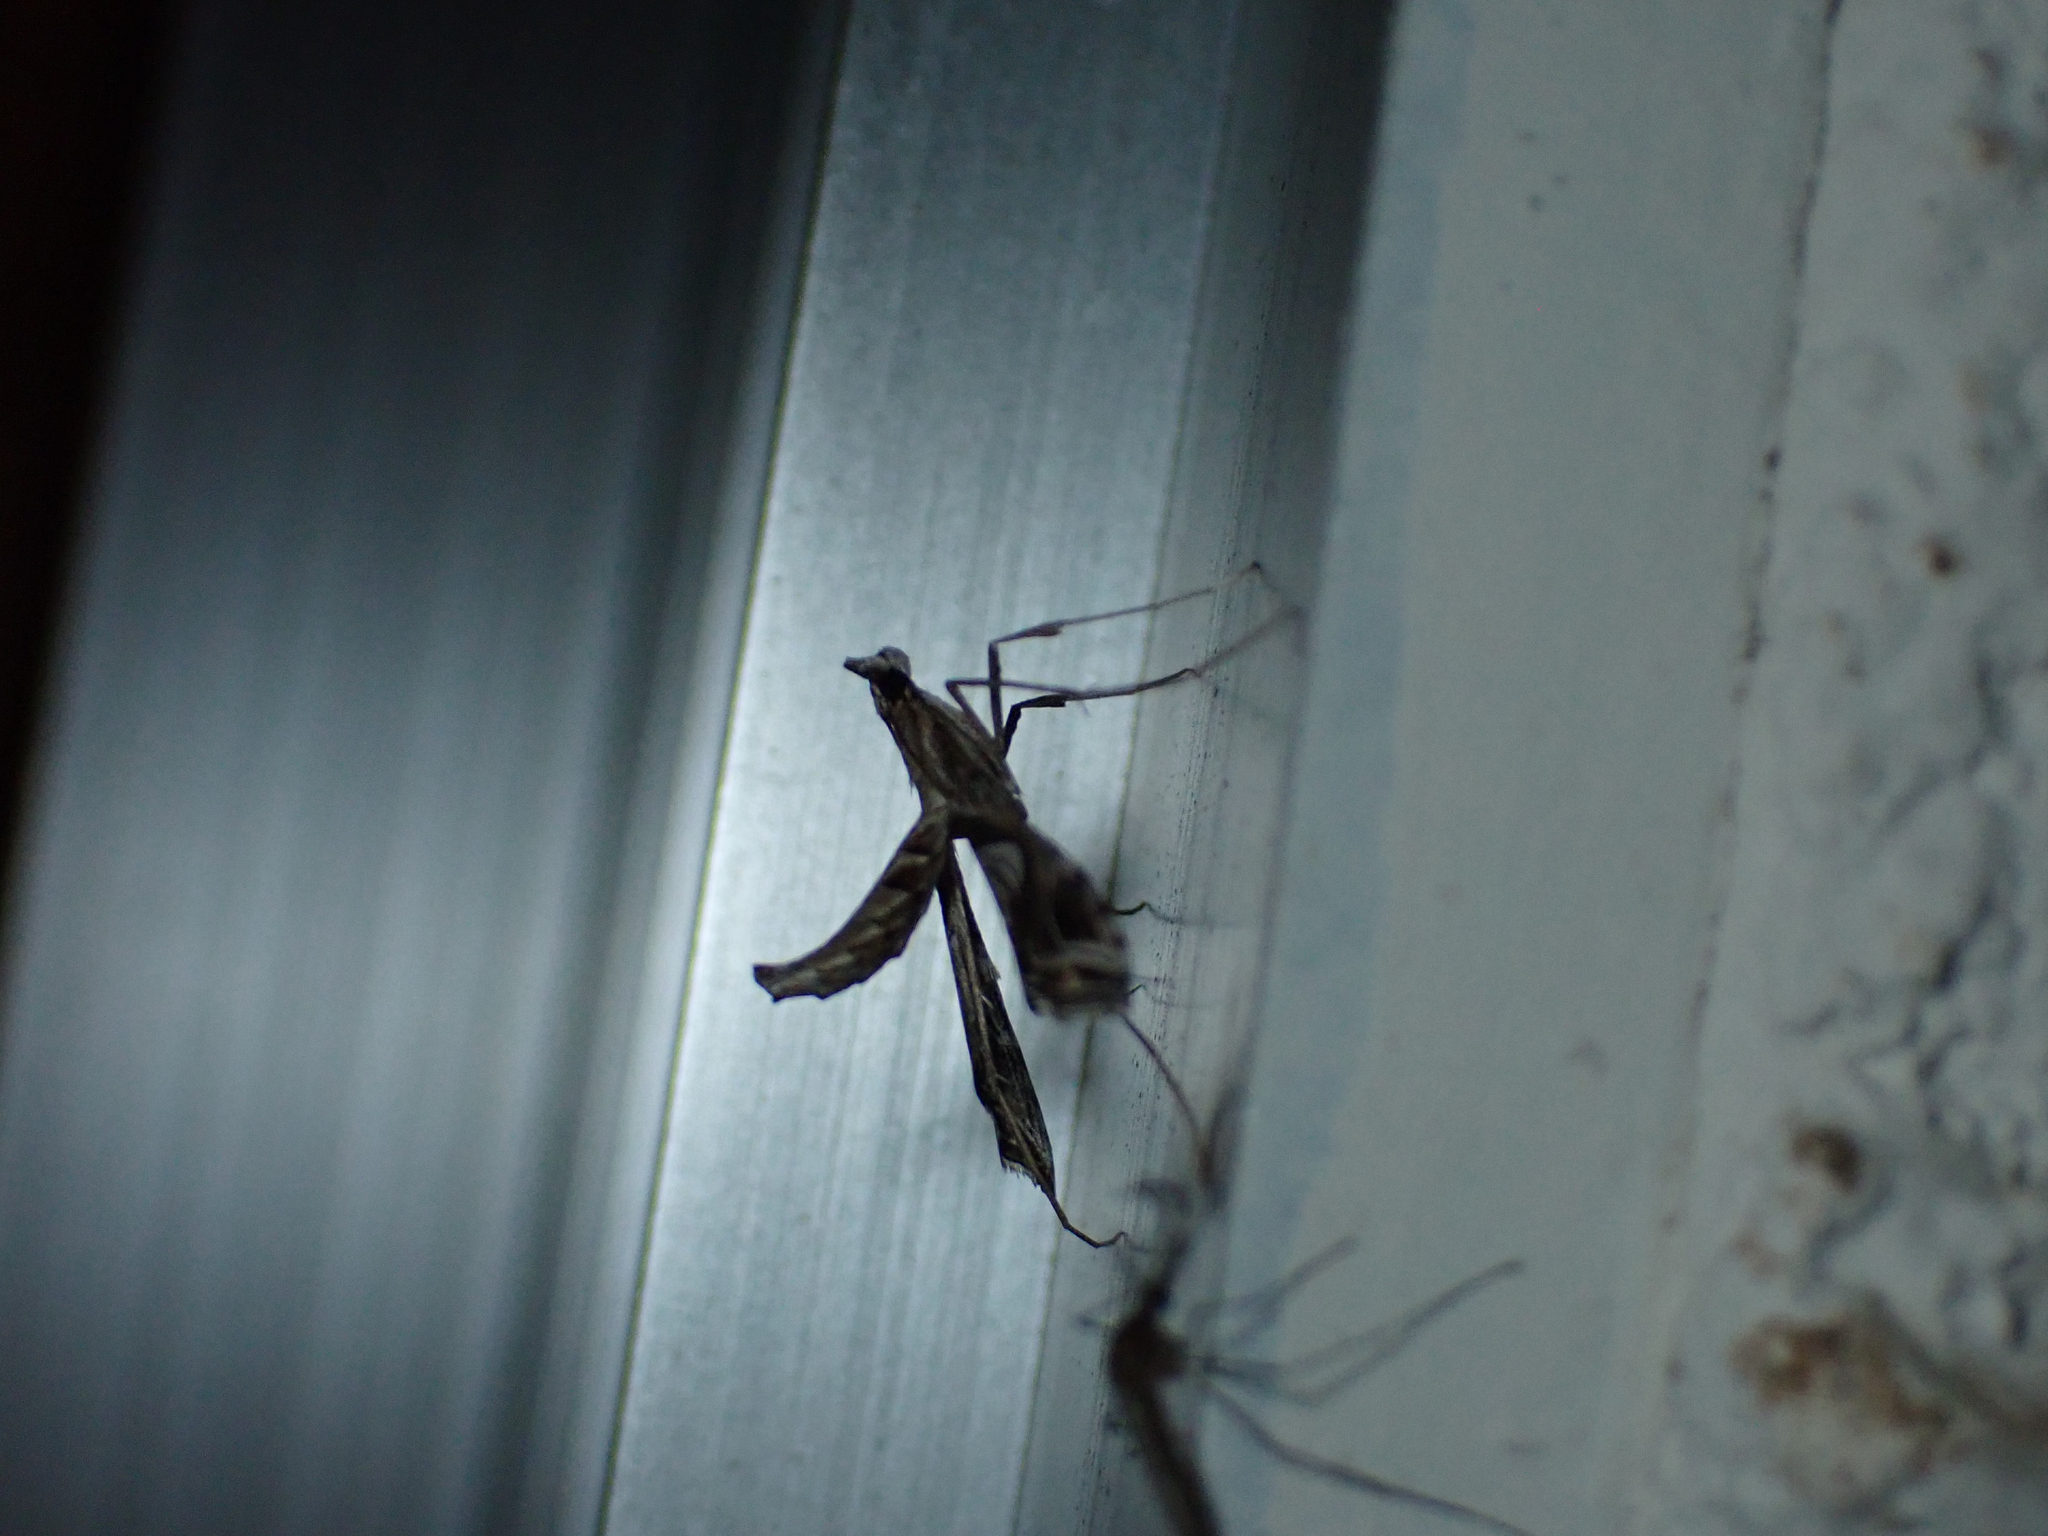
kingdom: Animalia
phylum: Arthropoda
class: Insecta
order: Lepidoptera
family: Crambidae
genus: Lineodes
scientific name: Lineodes integra
